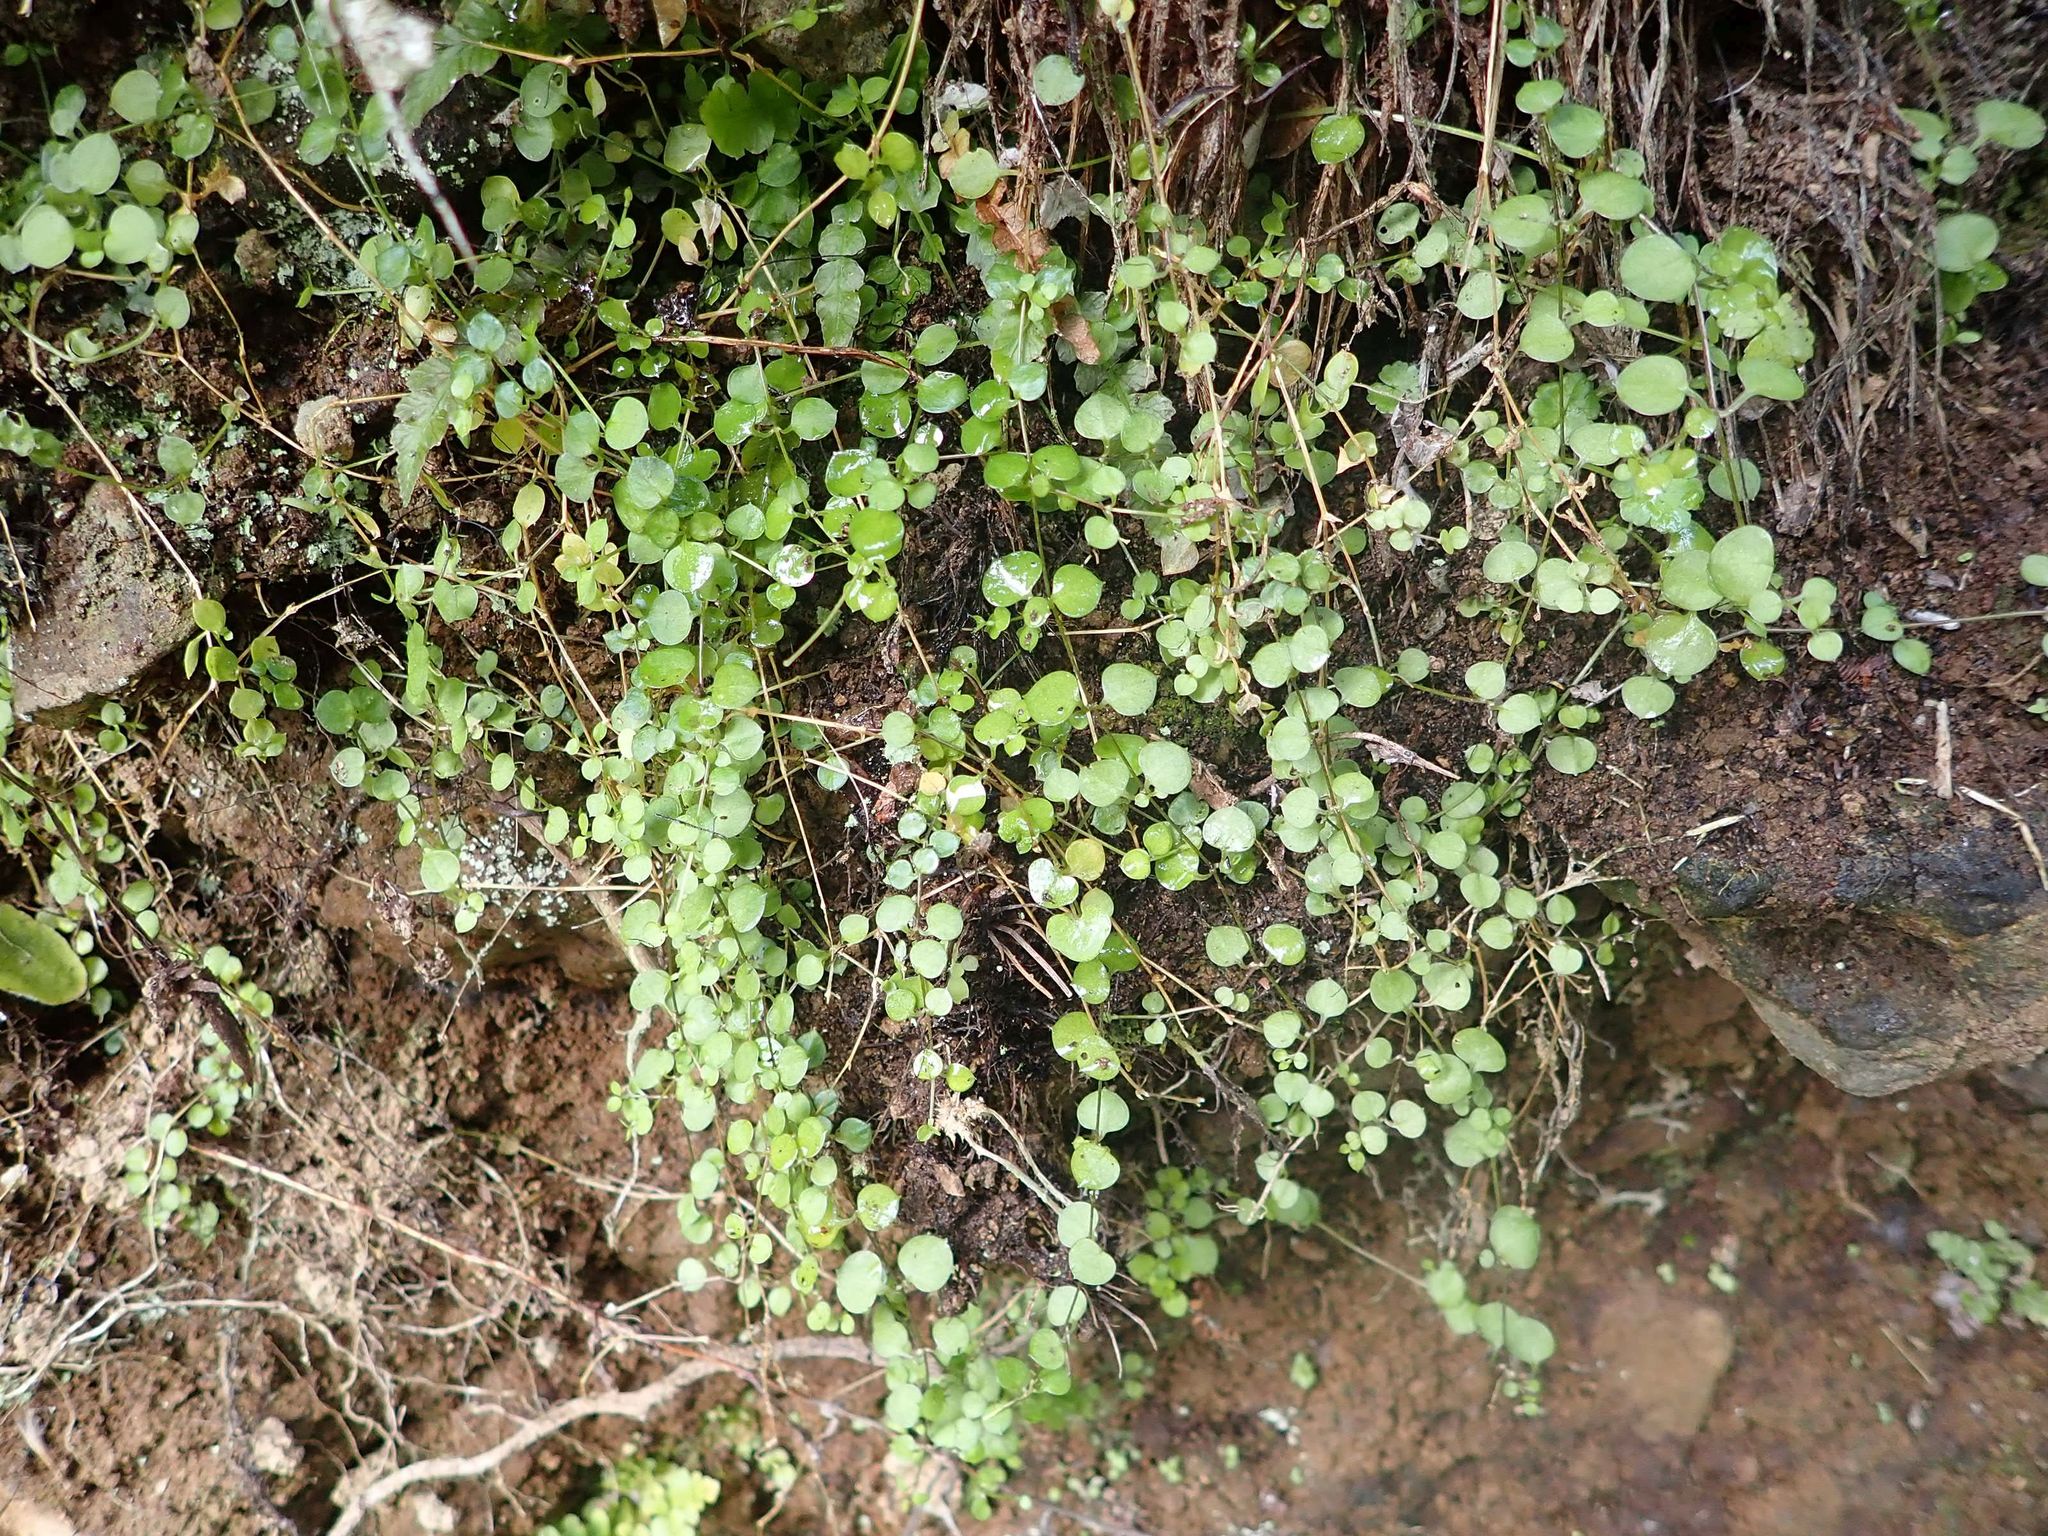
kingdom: Plantae
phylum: Tracheophyta
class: Magnoliopsida
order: Caryophyllales
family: Caryophyllaceae
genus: Stellaria
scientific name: Stellaria parviflora
